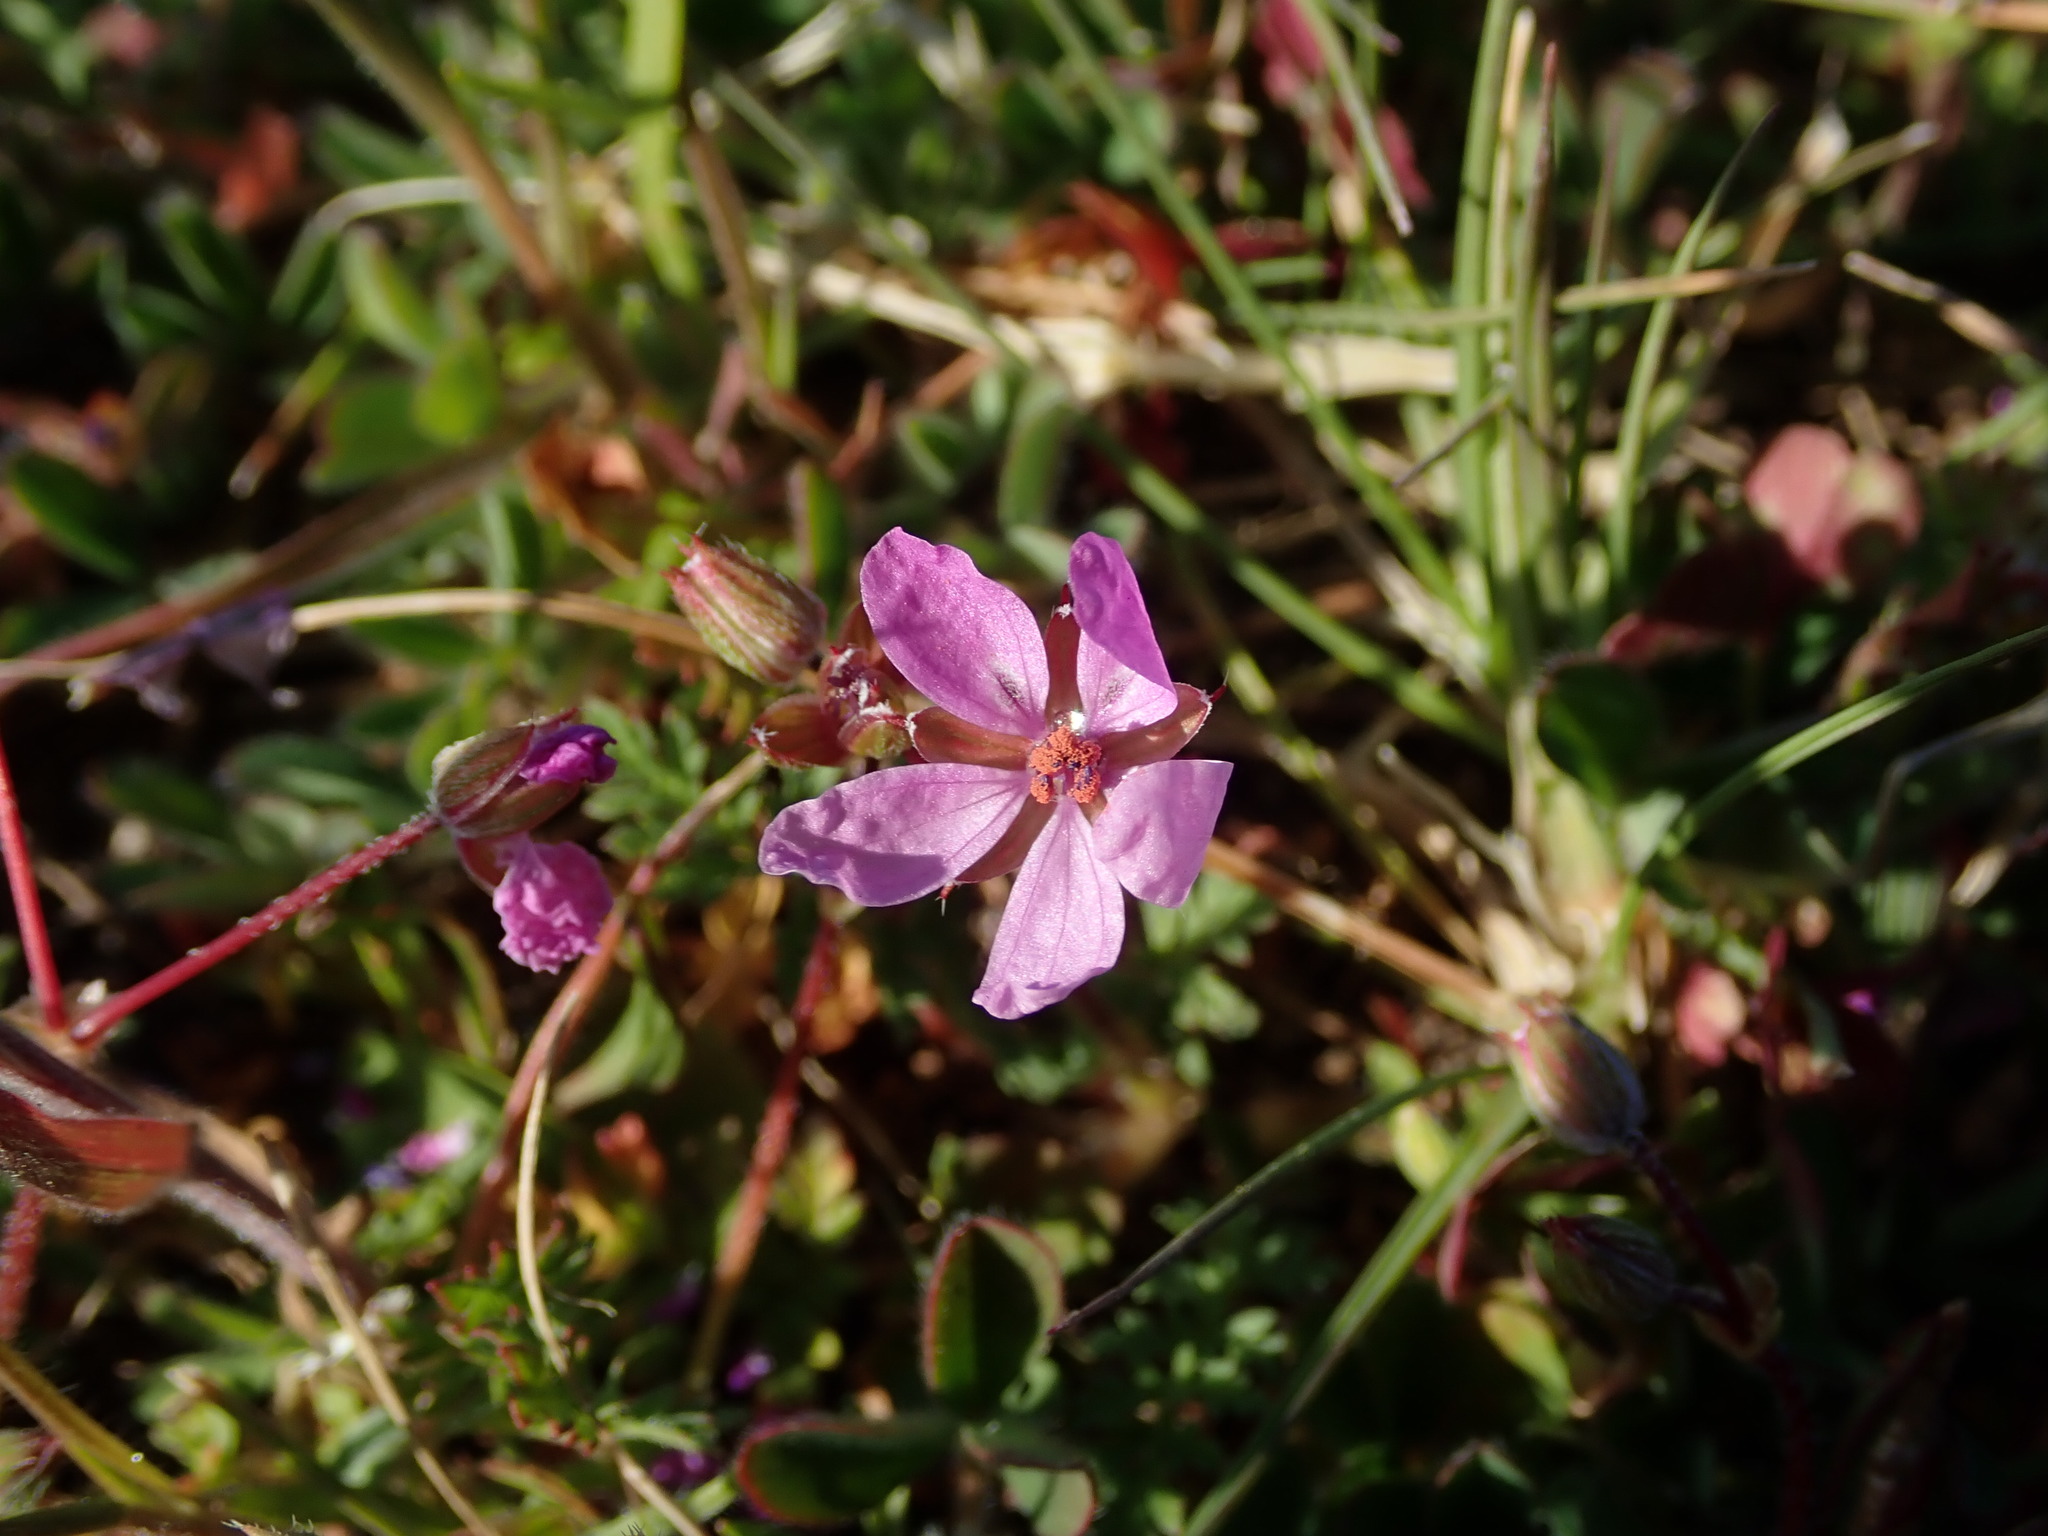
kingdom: Plantae
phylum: Tracheophyta
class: Magnoliopsida
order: Geraniales
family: Geraniaceae
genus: Erodium
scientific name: Erodium cicutarium
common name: Common stork's-bill
